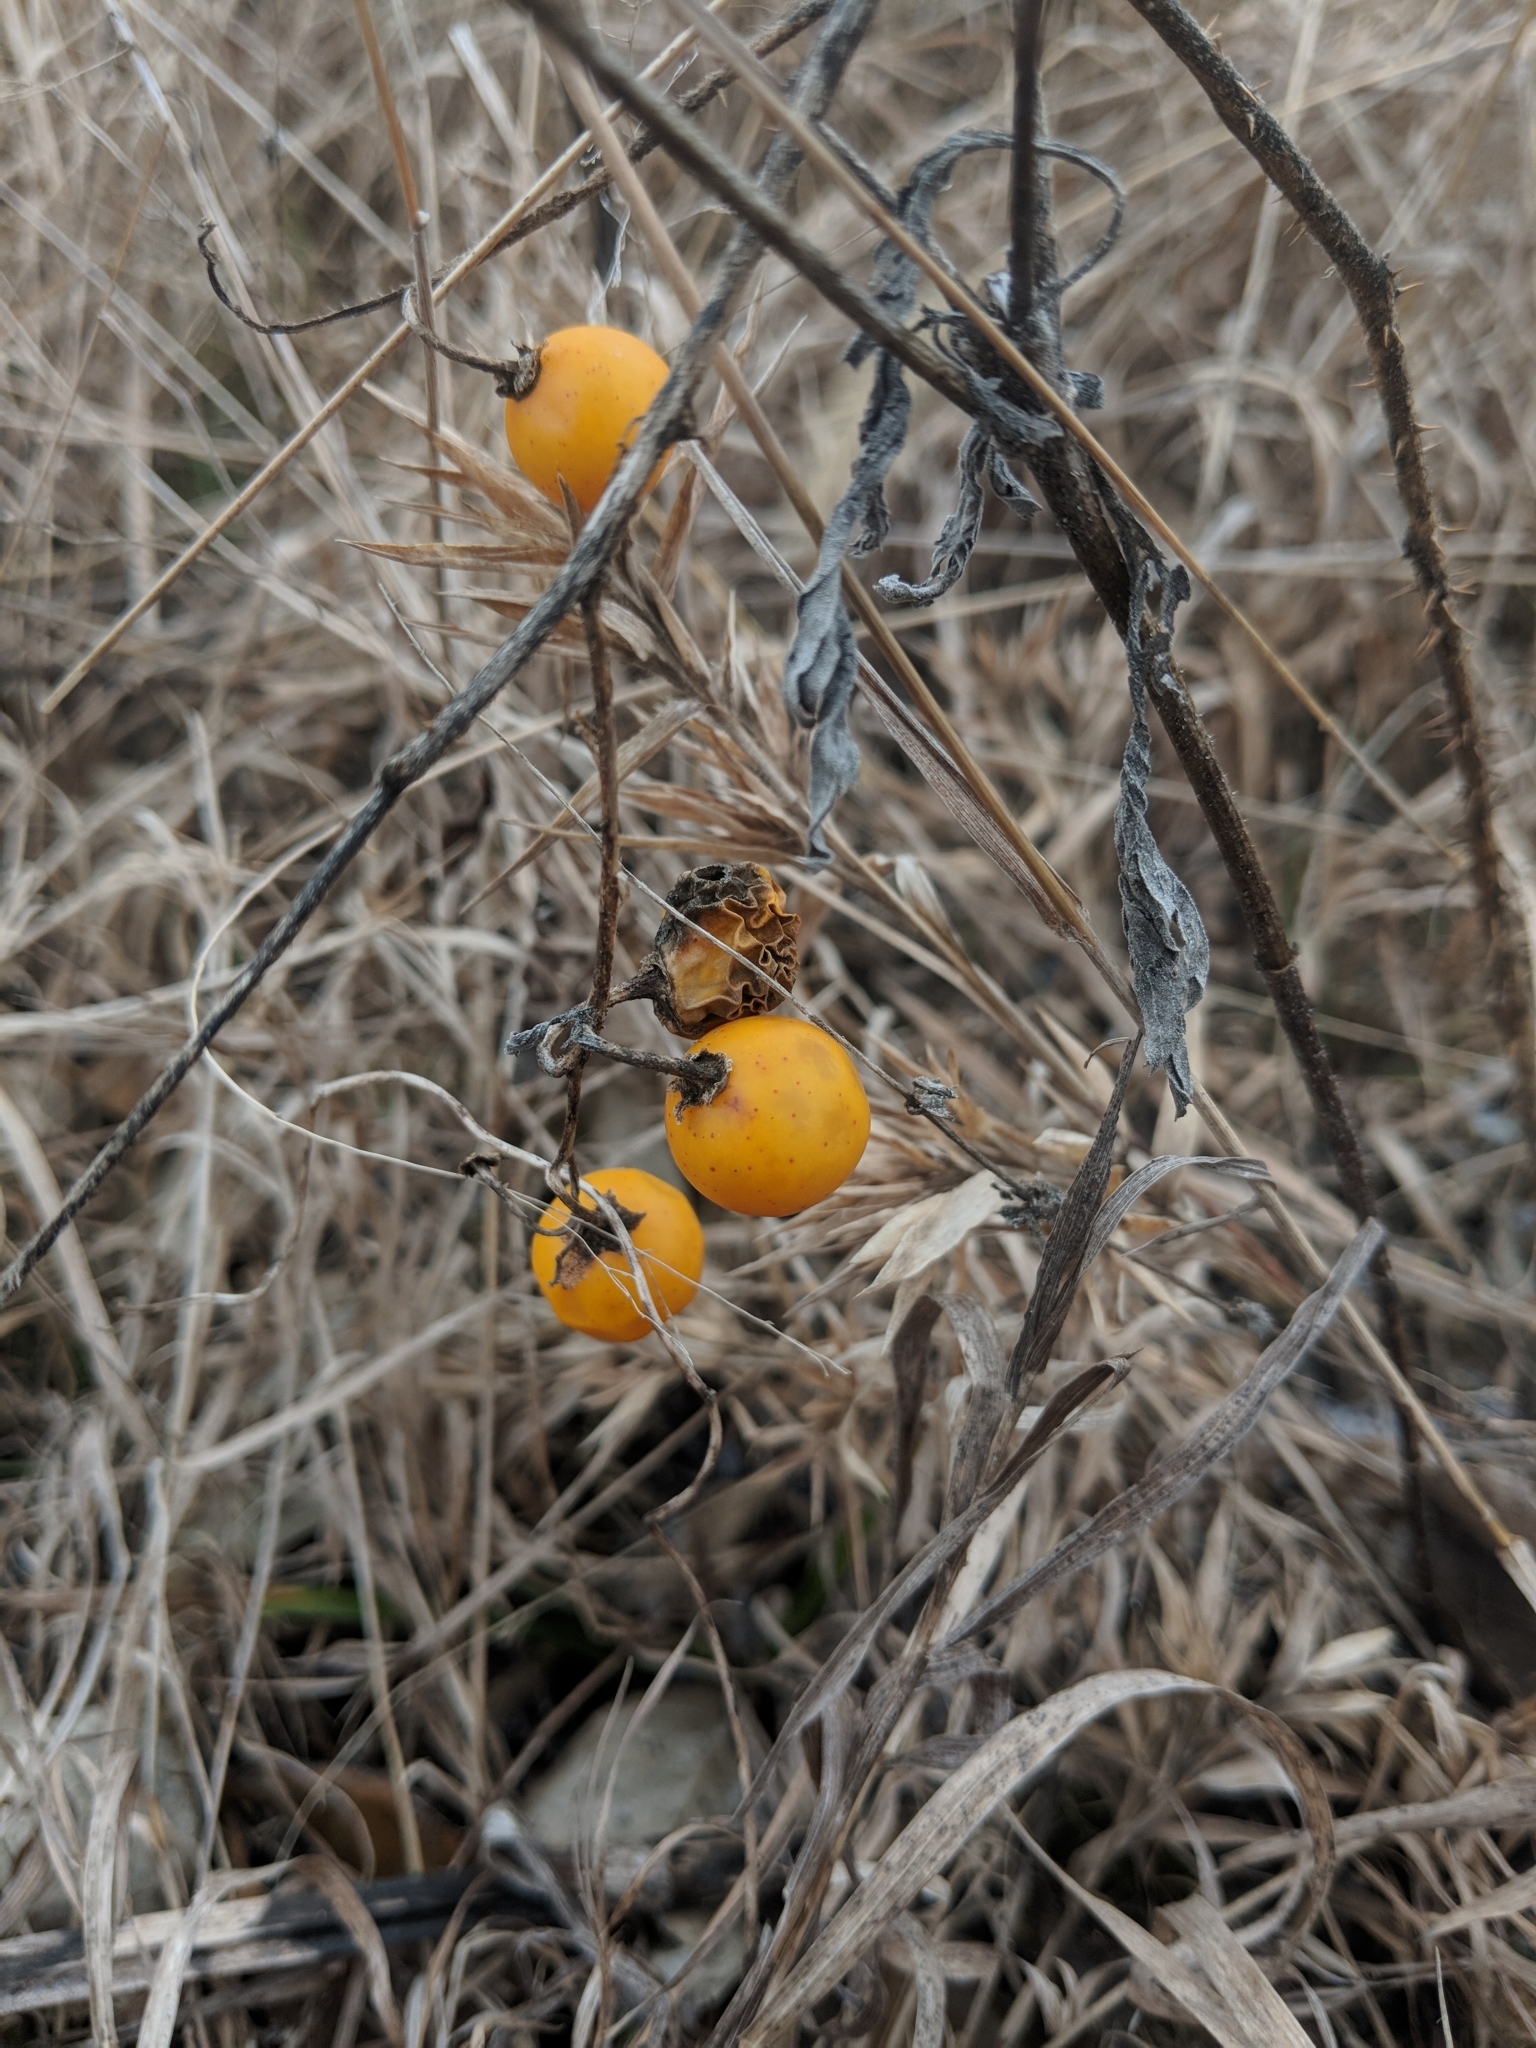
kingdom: Plantae
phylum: Tracheophyta
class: Magnoliopsida
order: Solanales
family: Solanaceae
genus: Solanum
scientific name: Solanum carolinense
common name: Horse-nettle
